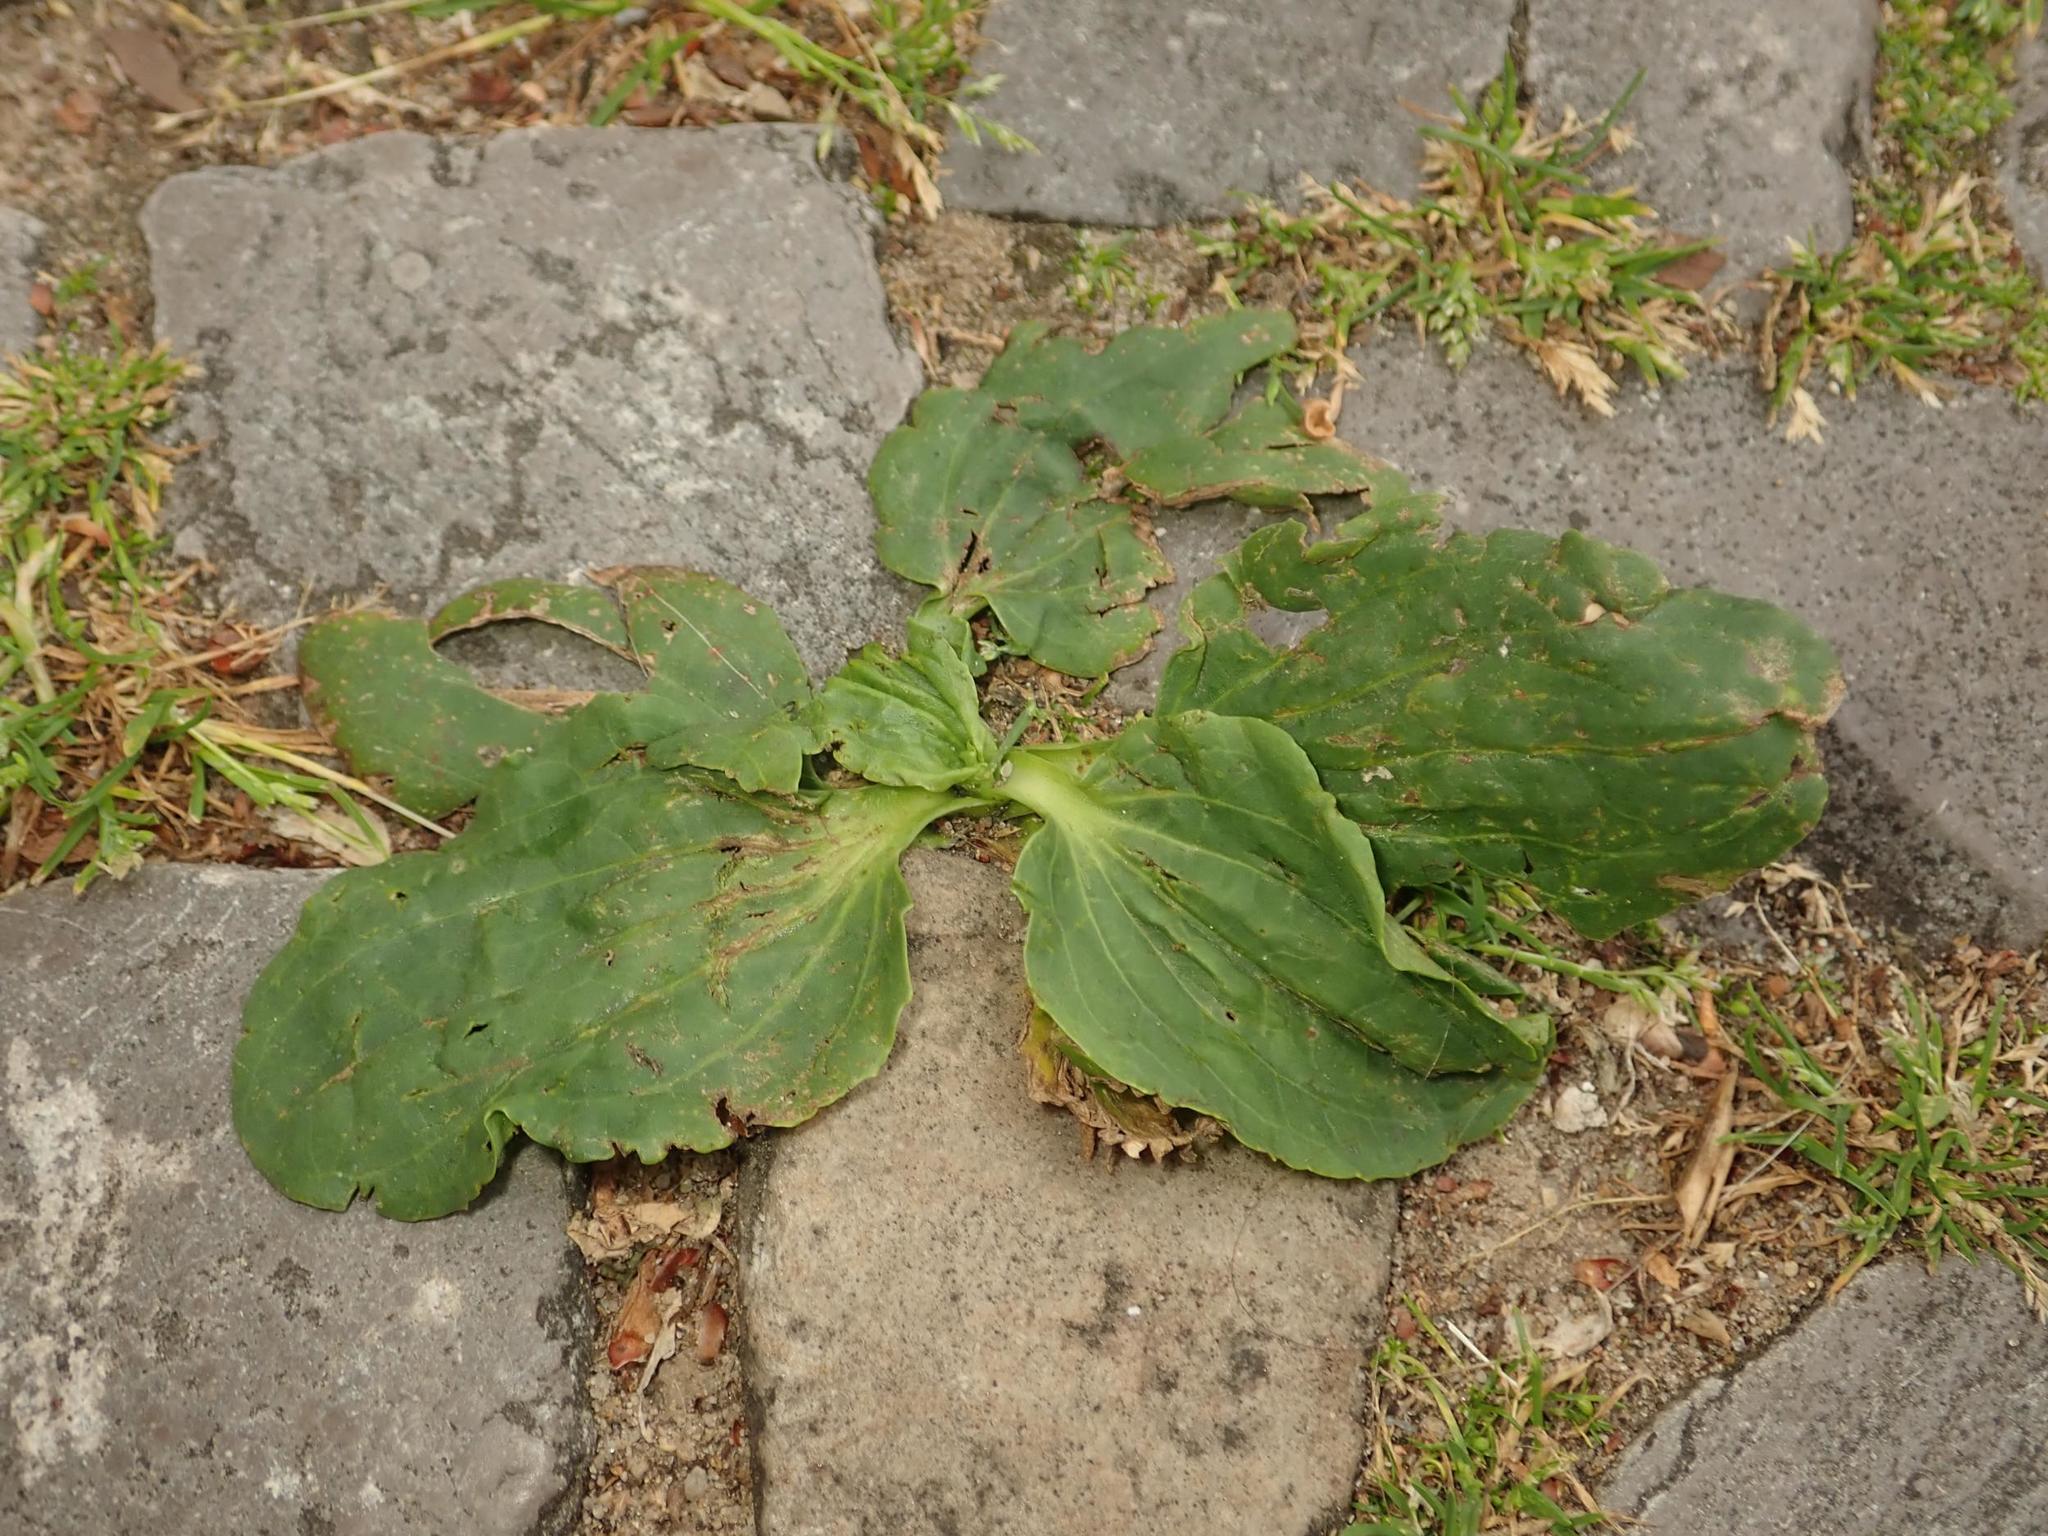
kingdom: Plantae
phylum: Tracheophyta
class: Magnoliopsida
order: Lamiales
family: Plantaginaceae
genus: Plantago
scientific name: Plantago major
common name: Common plantain
